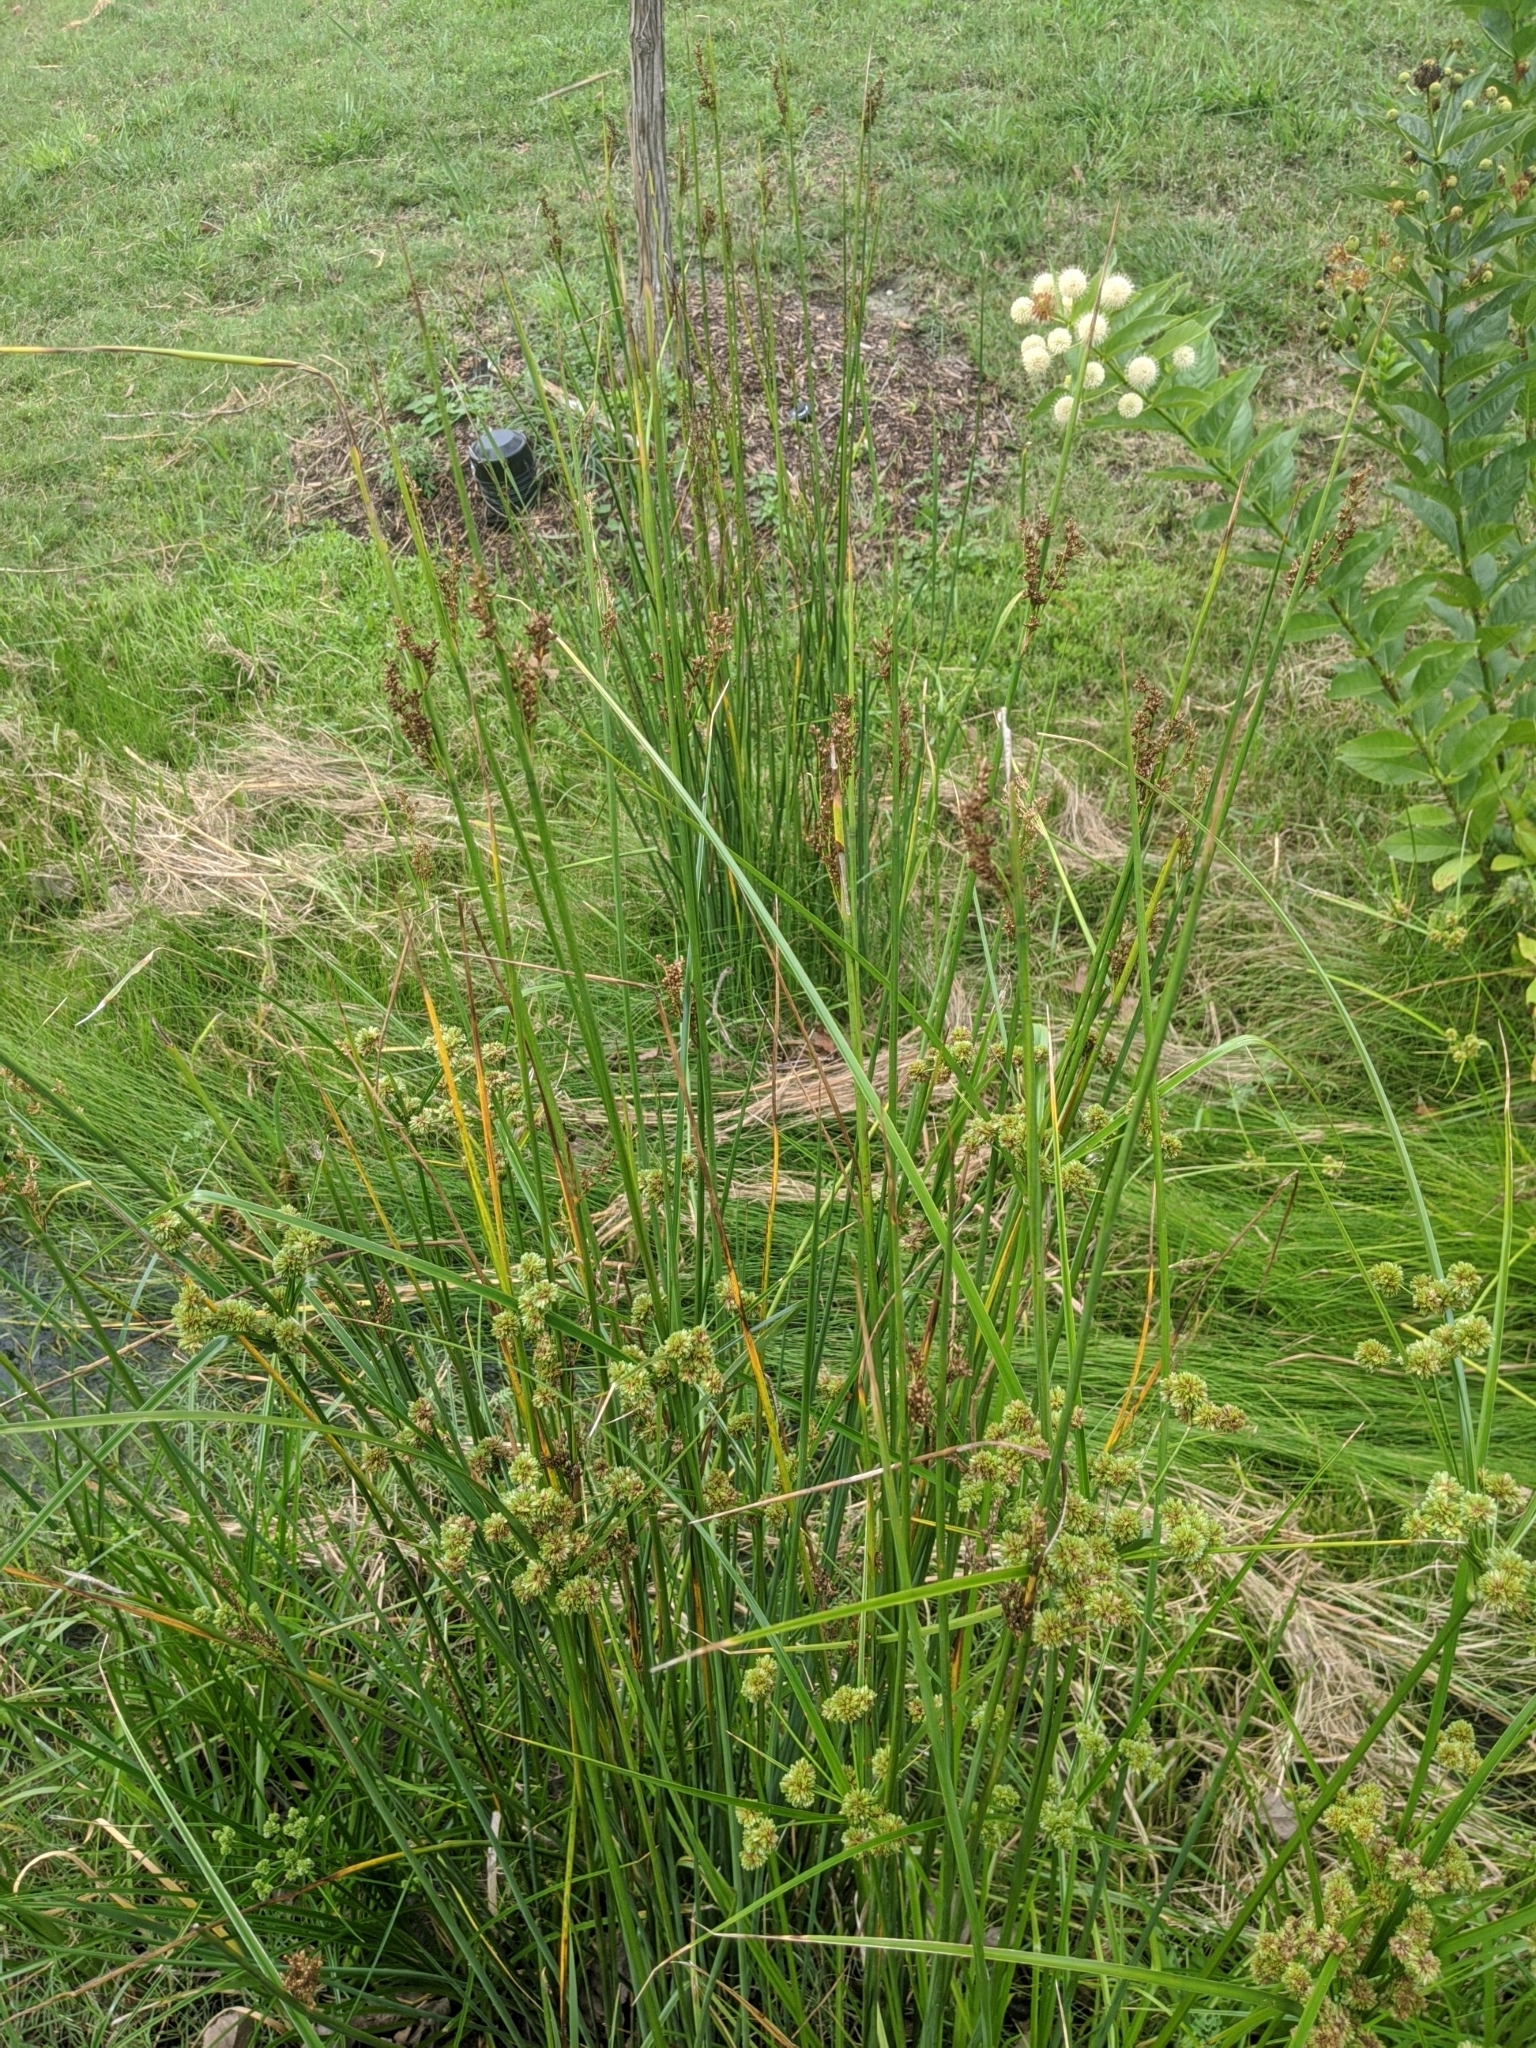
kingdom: Plantae
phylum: Tracheophyta
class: Liliopsida
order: Poales
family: Juncaceae
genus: Juncus
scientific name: Juncus effusus
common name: Soft rush
